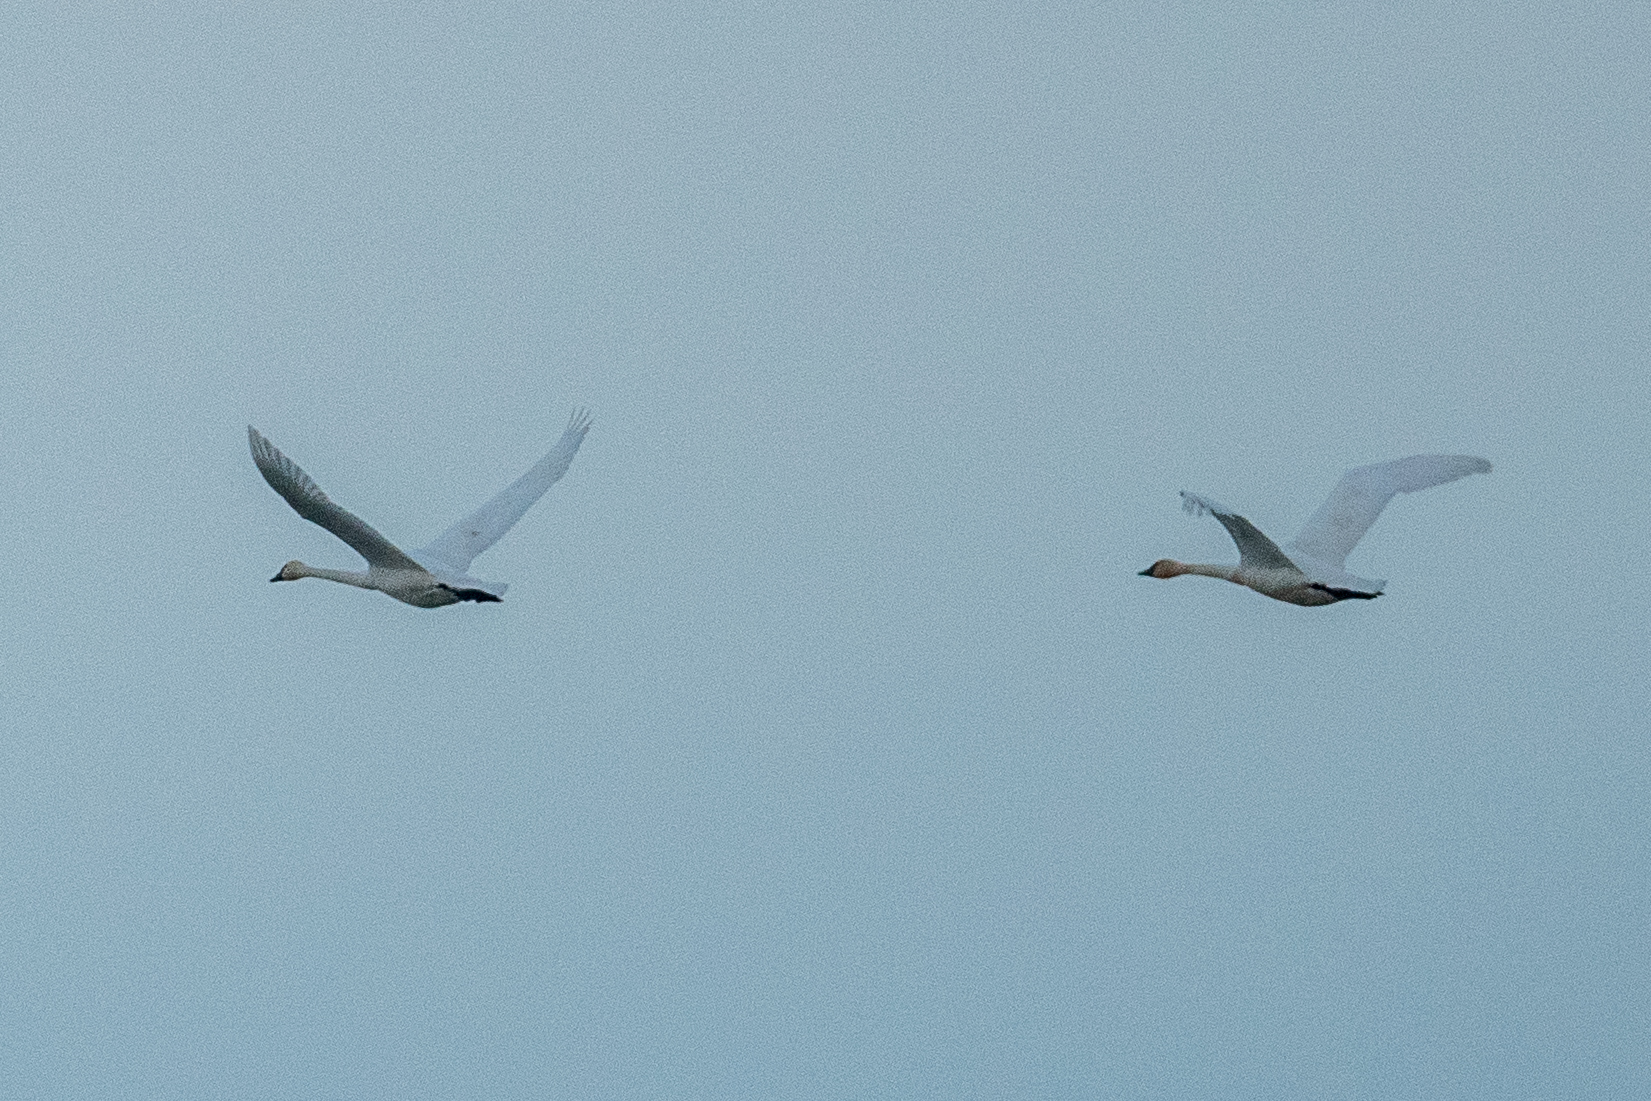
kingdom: Animalia
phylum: Chordata
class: Aves
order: Anseriformes
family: Anatidae
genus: Cygnus
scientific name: Cygnus columbianus
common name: Tundra swan
